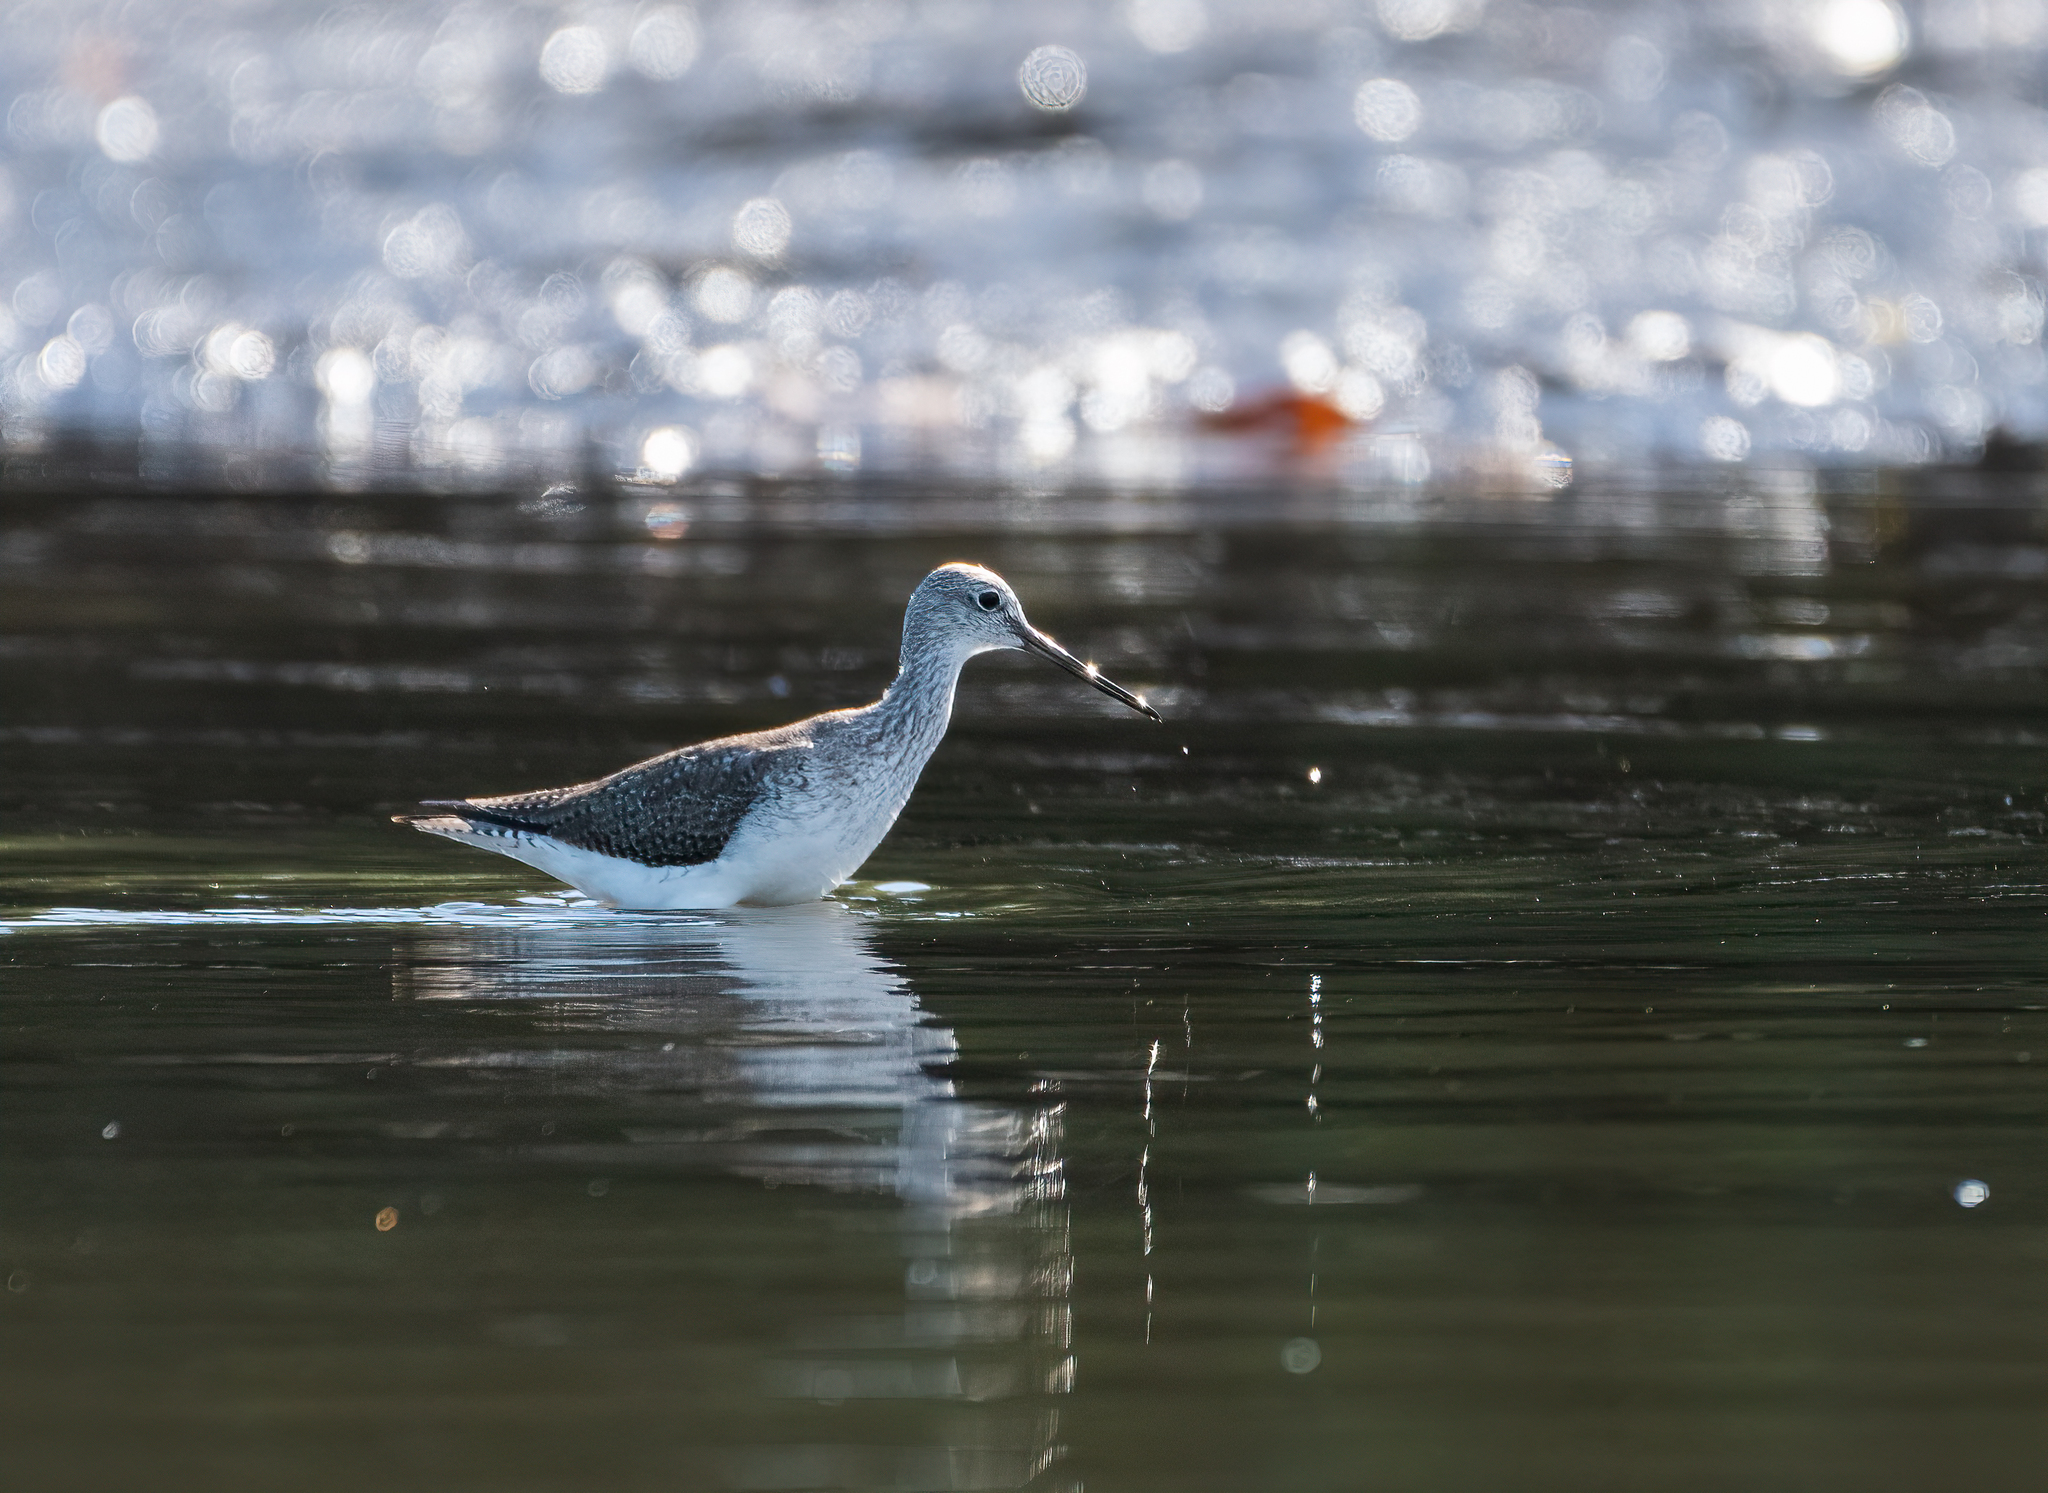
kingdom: Animalia
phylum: Chordata
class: Aves
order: Charadriiformes
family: Scolopacidae
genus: Tringa
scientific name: Tringa melanoleuca
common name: Greater yellowlegs
